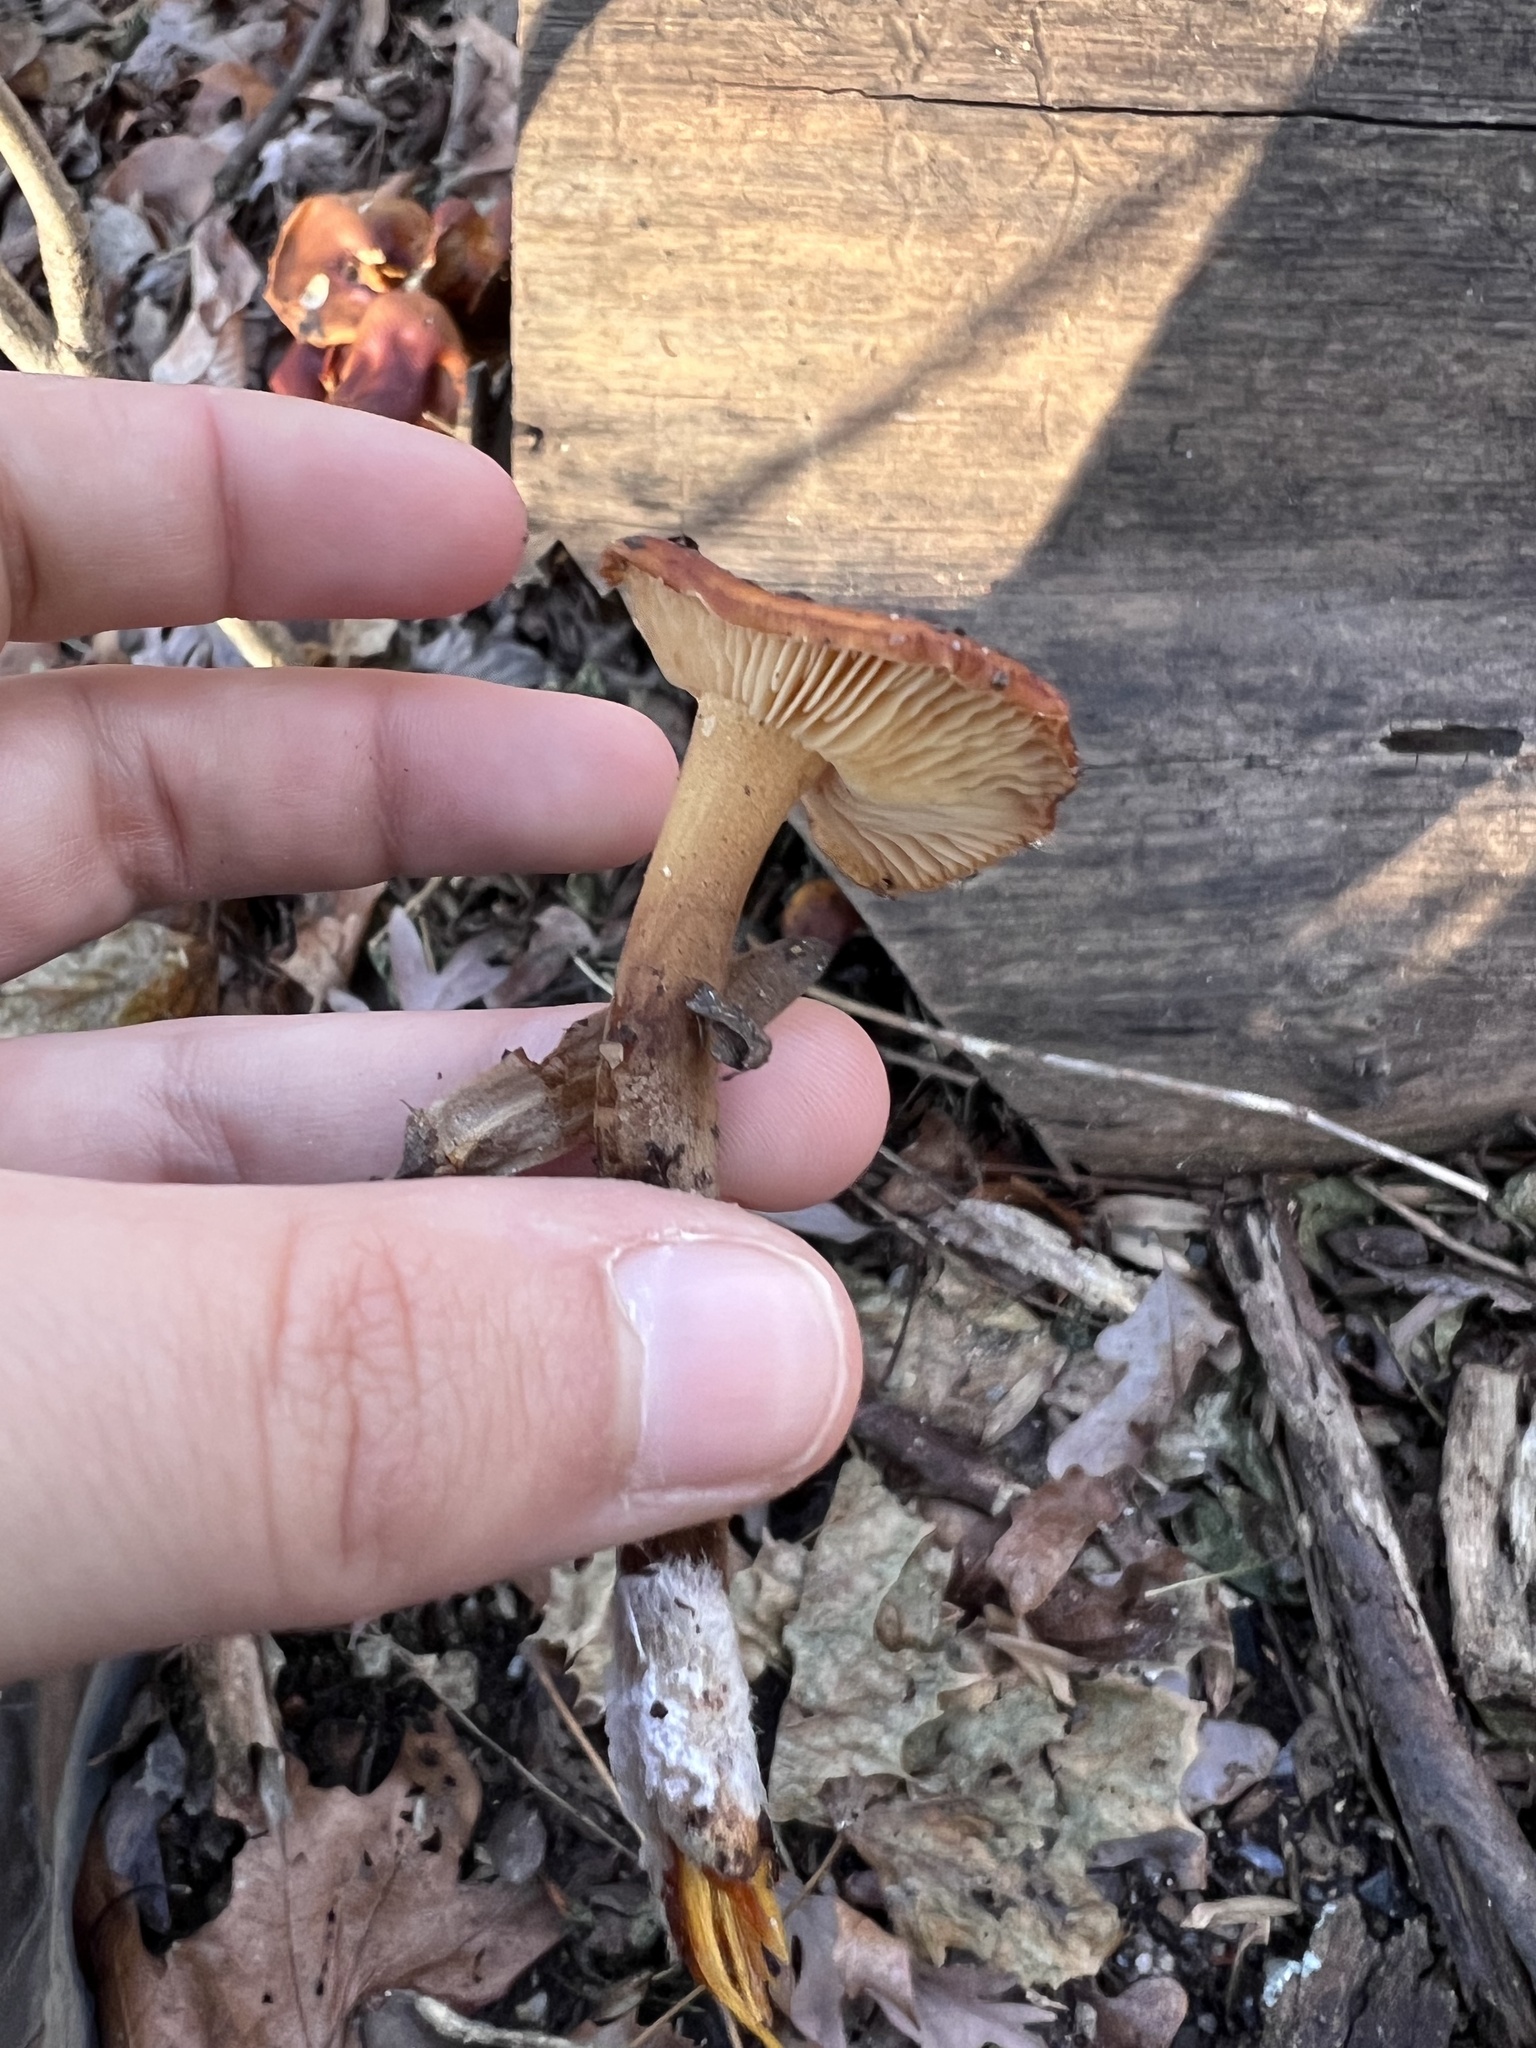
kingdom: Fungi
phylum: Basidiomycota
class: Agaricomycetes
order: Agaricales
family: Physalacriaceae
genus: Flammulina
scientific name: Flammulina velutipes
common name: Velvet shank
